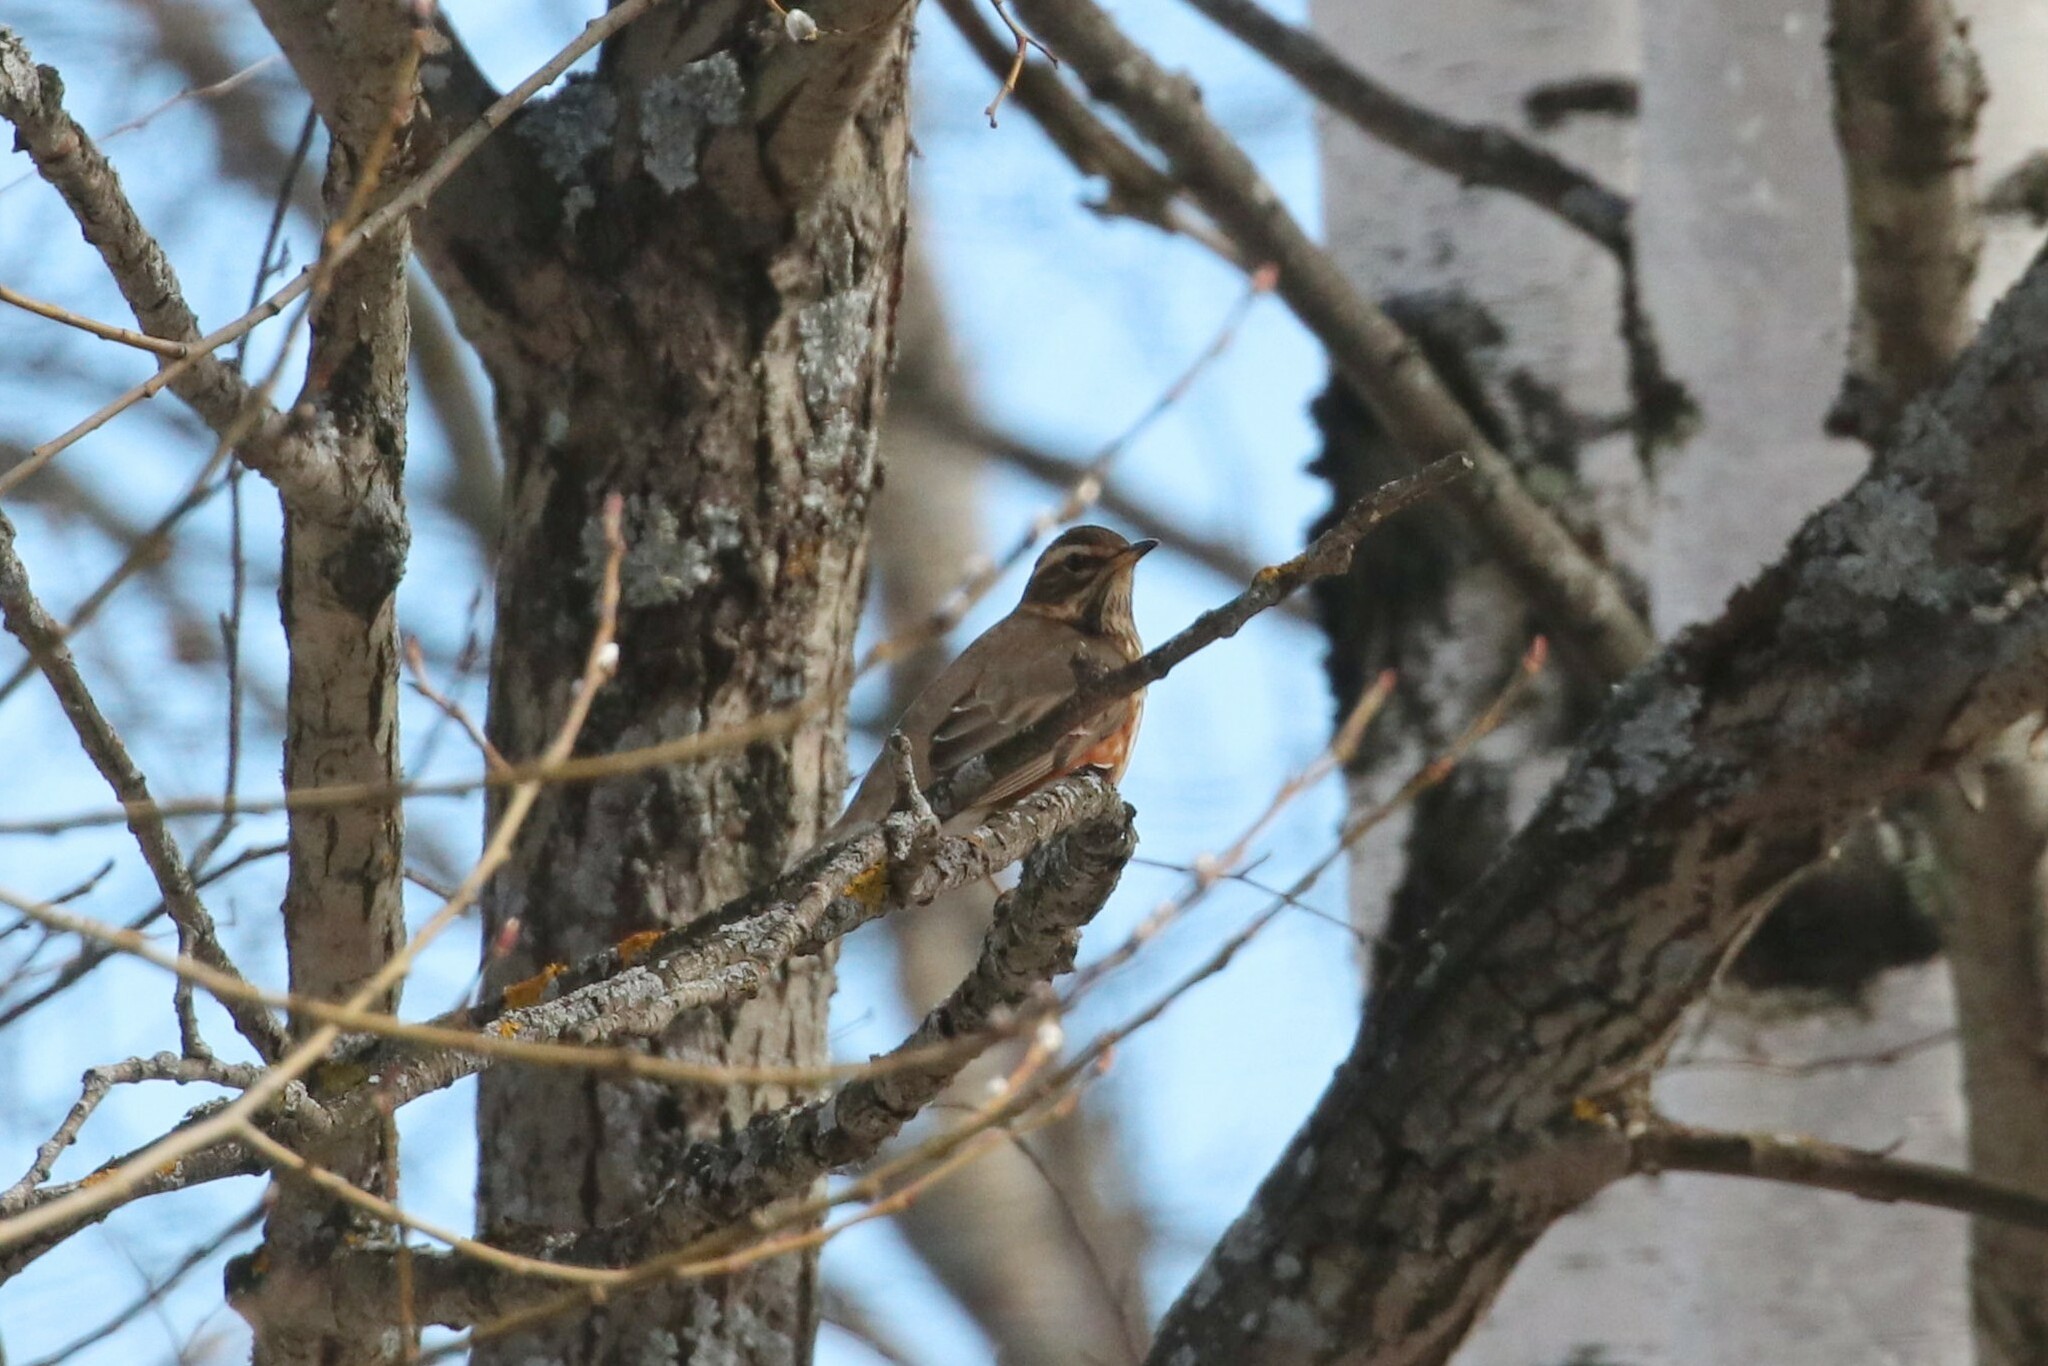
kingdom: Animalia
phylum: Chordata
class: Aves
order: Passeriformes
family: Turdidae
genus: Turdus
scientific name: Turdus iliacus
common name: Redwing
